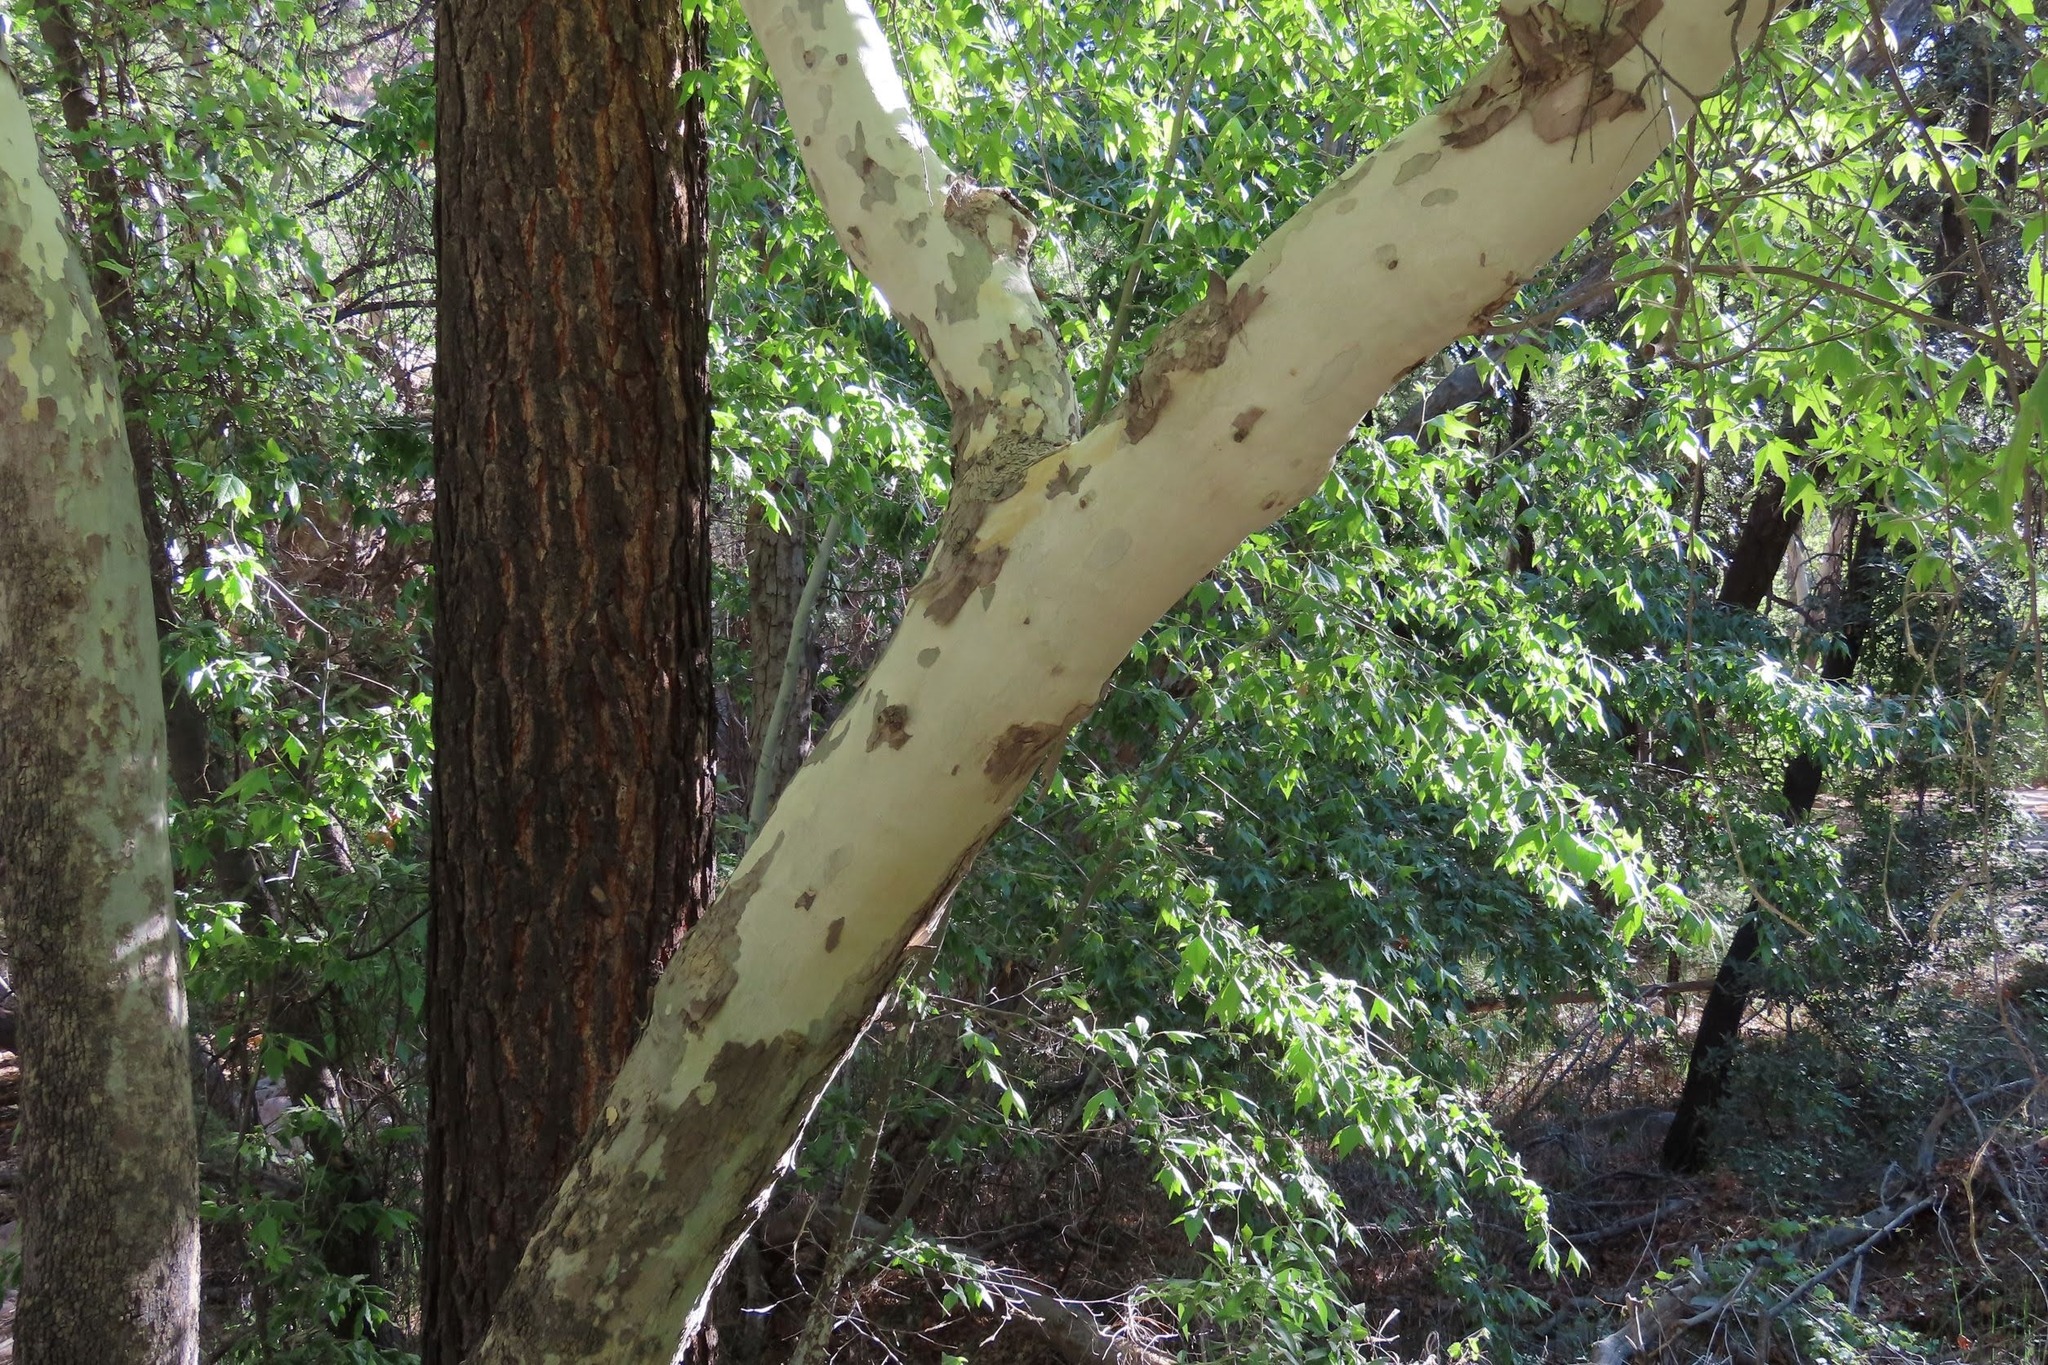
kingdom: Plantae
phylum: Tracheophyta
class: Magnoliopsida
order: Proteales
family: Platanaceae
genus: Platanus
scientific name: Platanus wrightii
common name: Arizona sycamore
